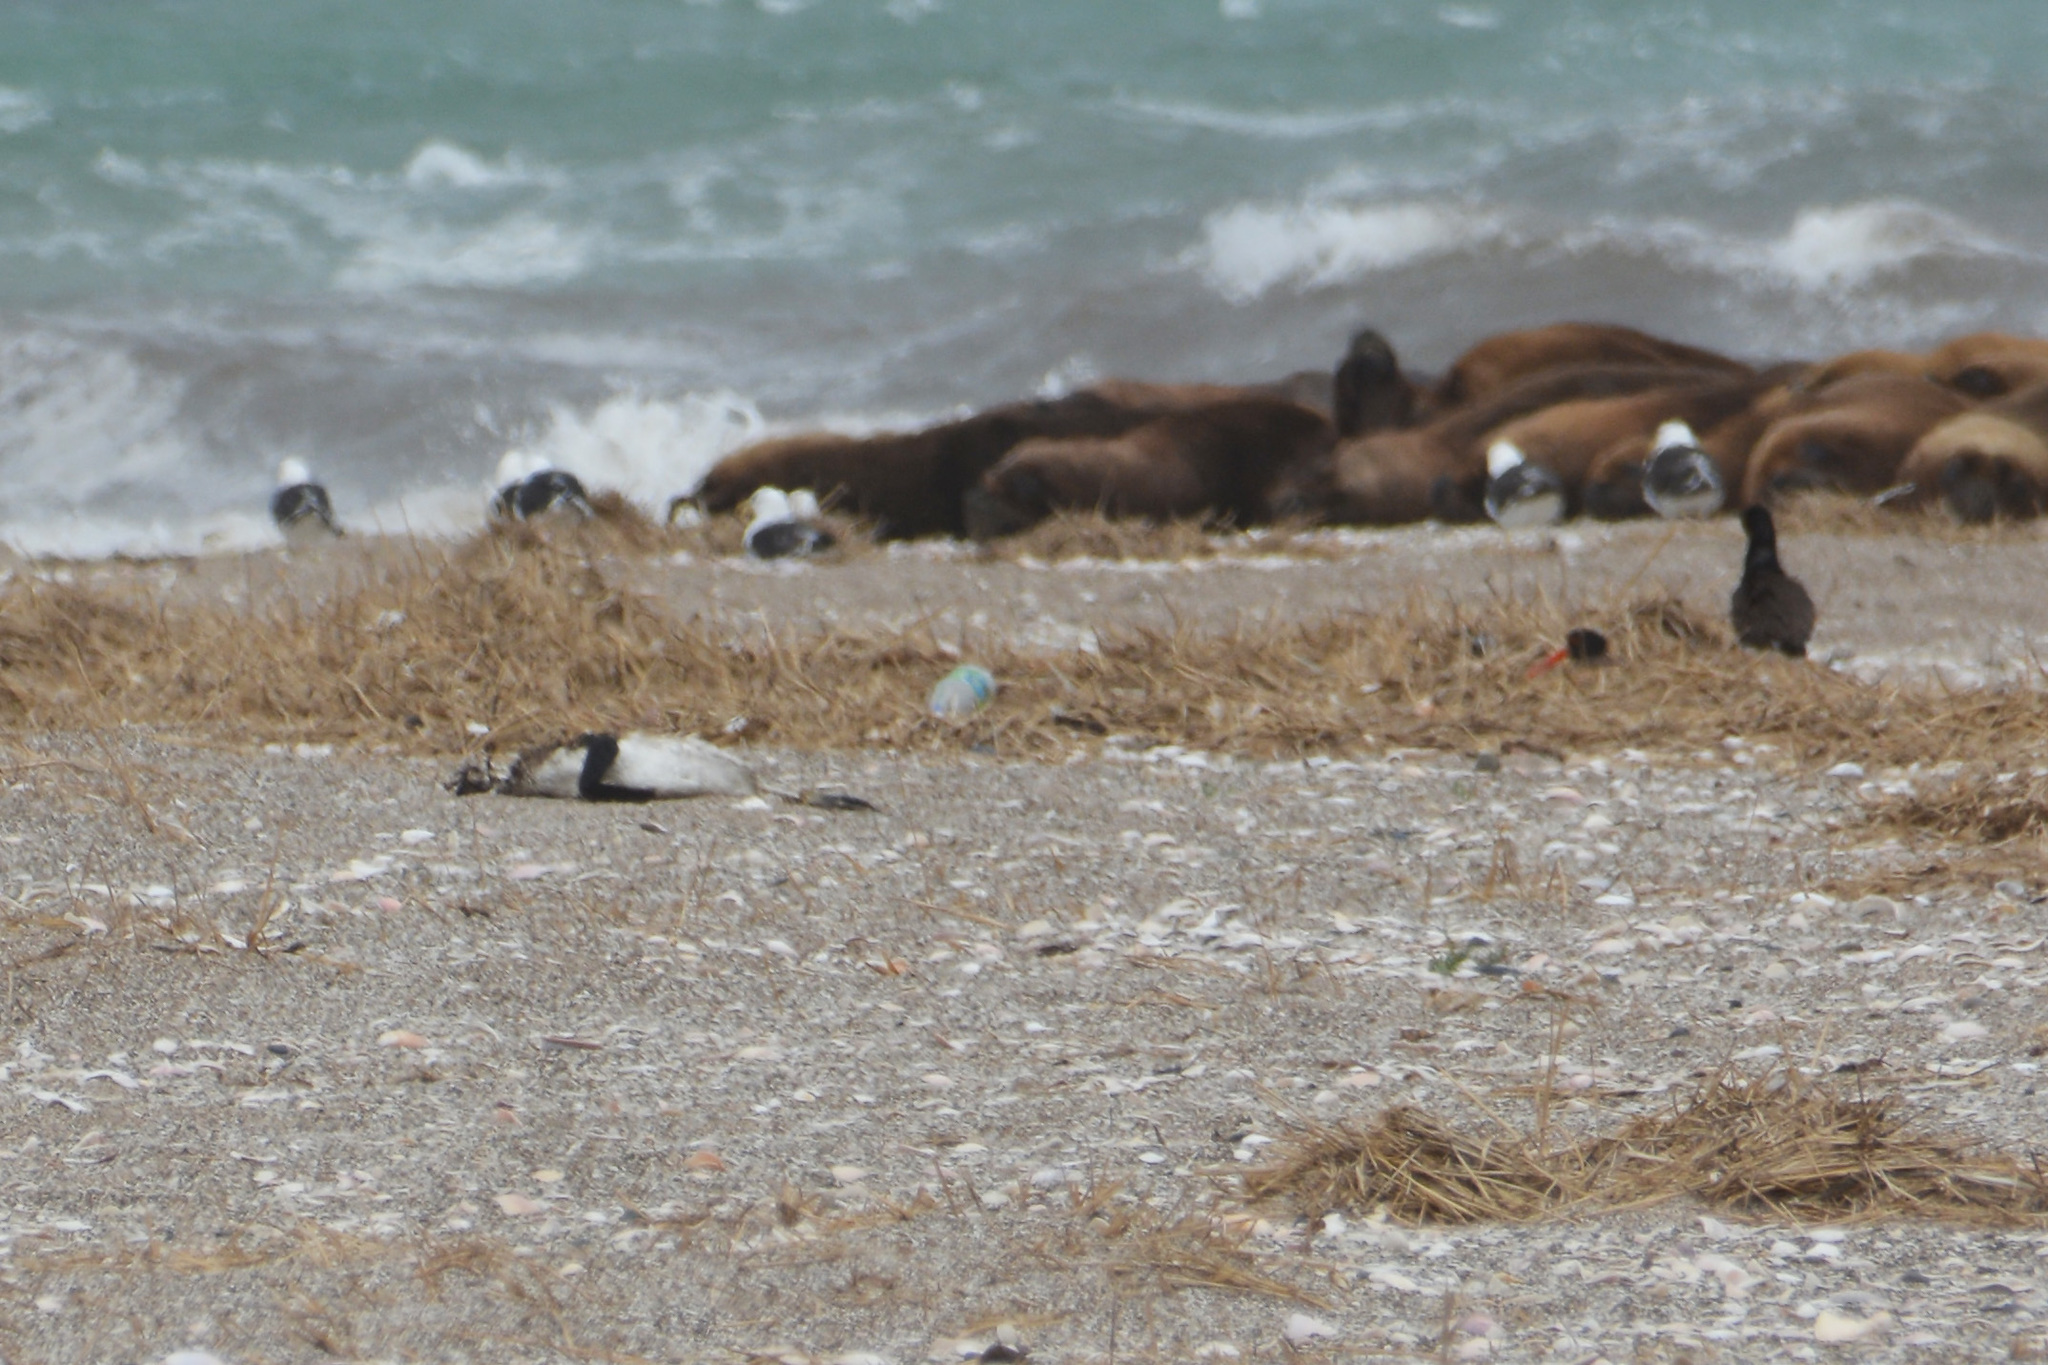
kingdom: Animalia
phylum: Chordata
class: Aves
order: Sphenisciformes
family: Spheniscidae
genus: Spheniscus
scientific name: Spheniscus magellanicus
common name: Magellanic penguin
